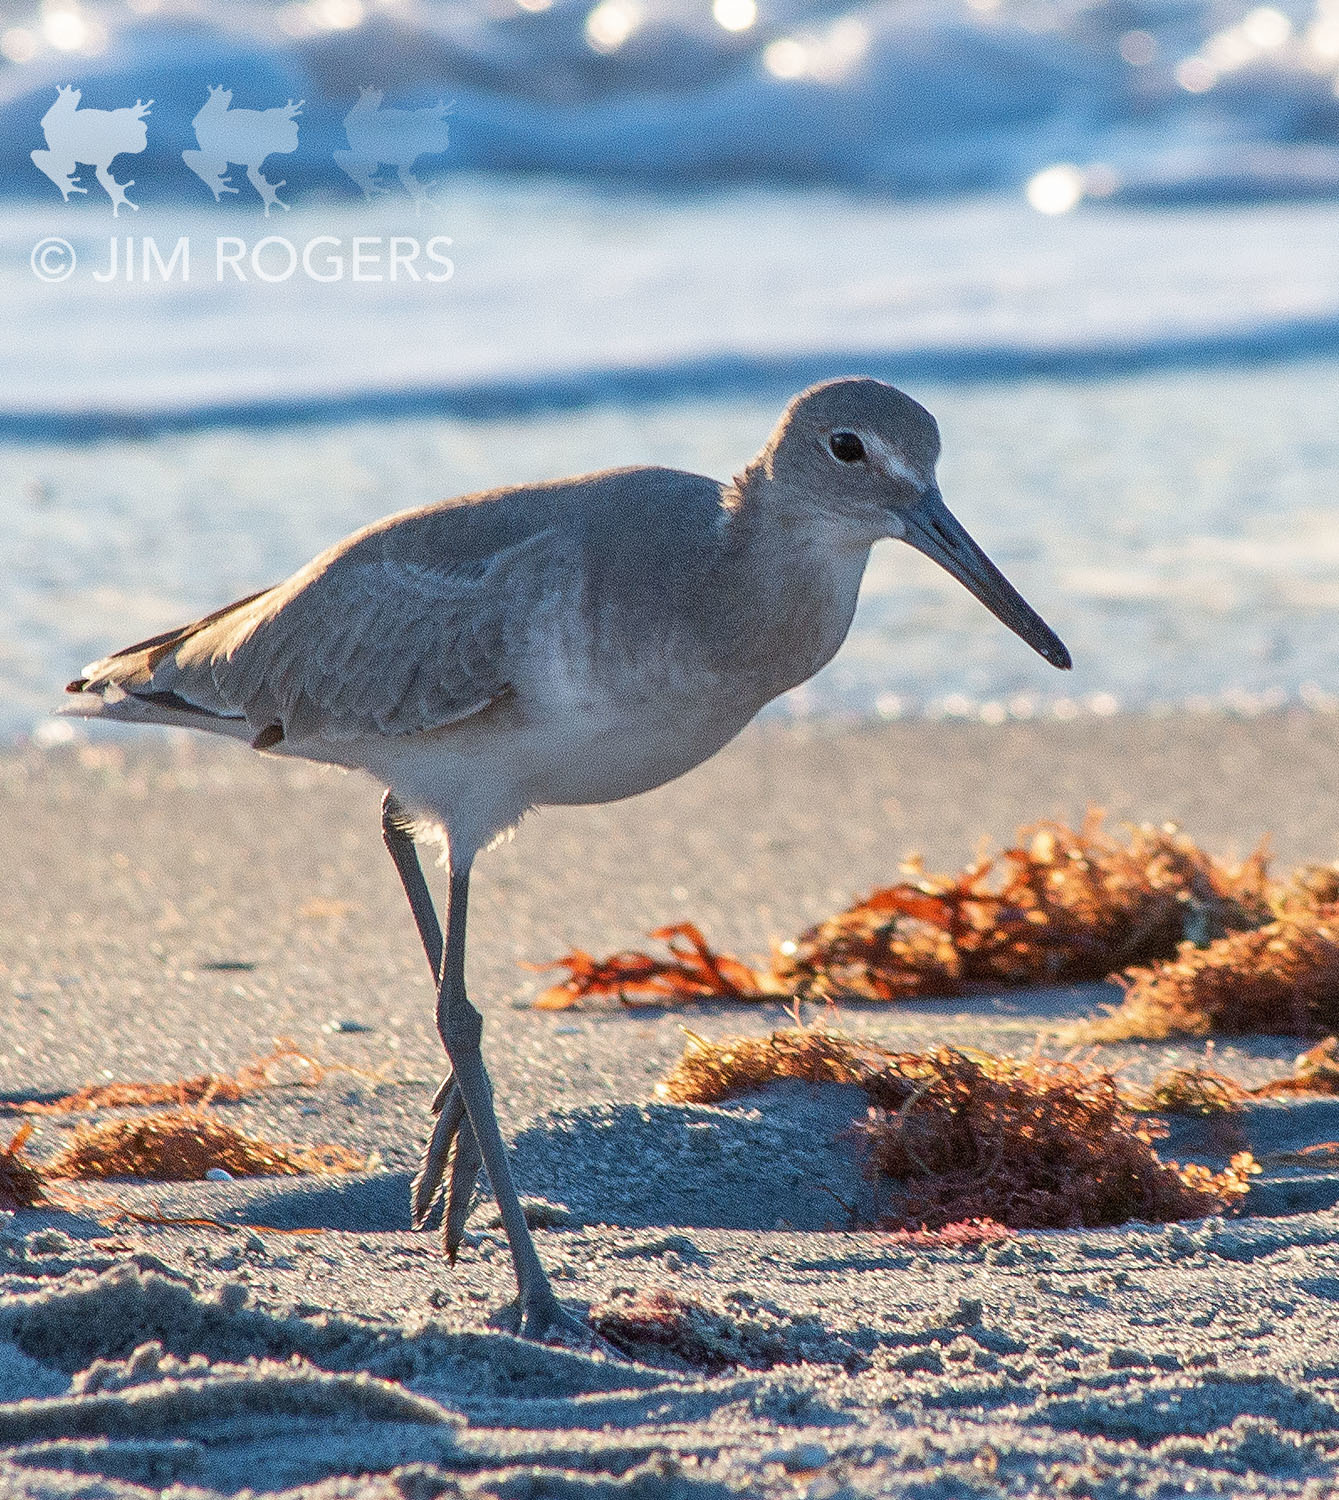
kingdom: Animalia
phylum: Chordata
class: Aves
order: Charadriiformes
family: Scolopacidae
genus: Tringa
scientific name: Tringa semipalmata
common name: Willet
